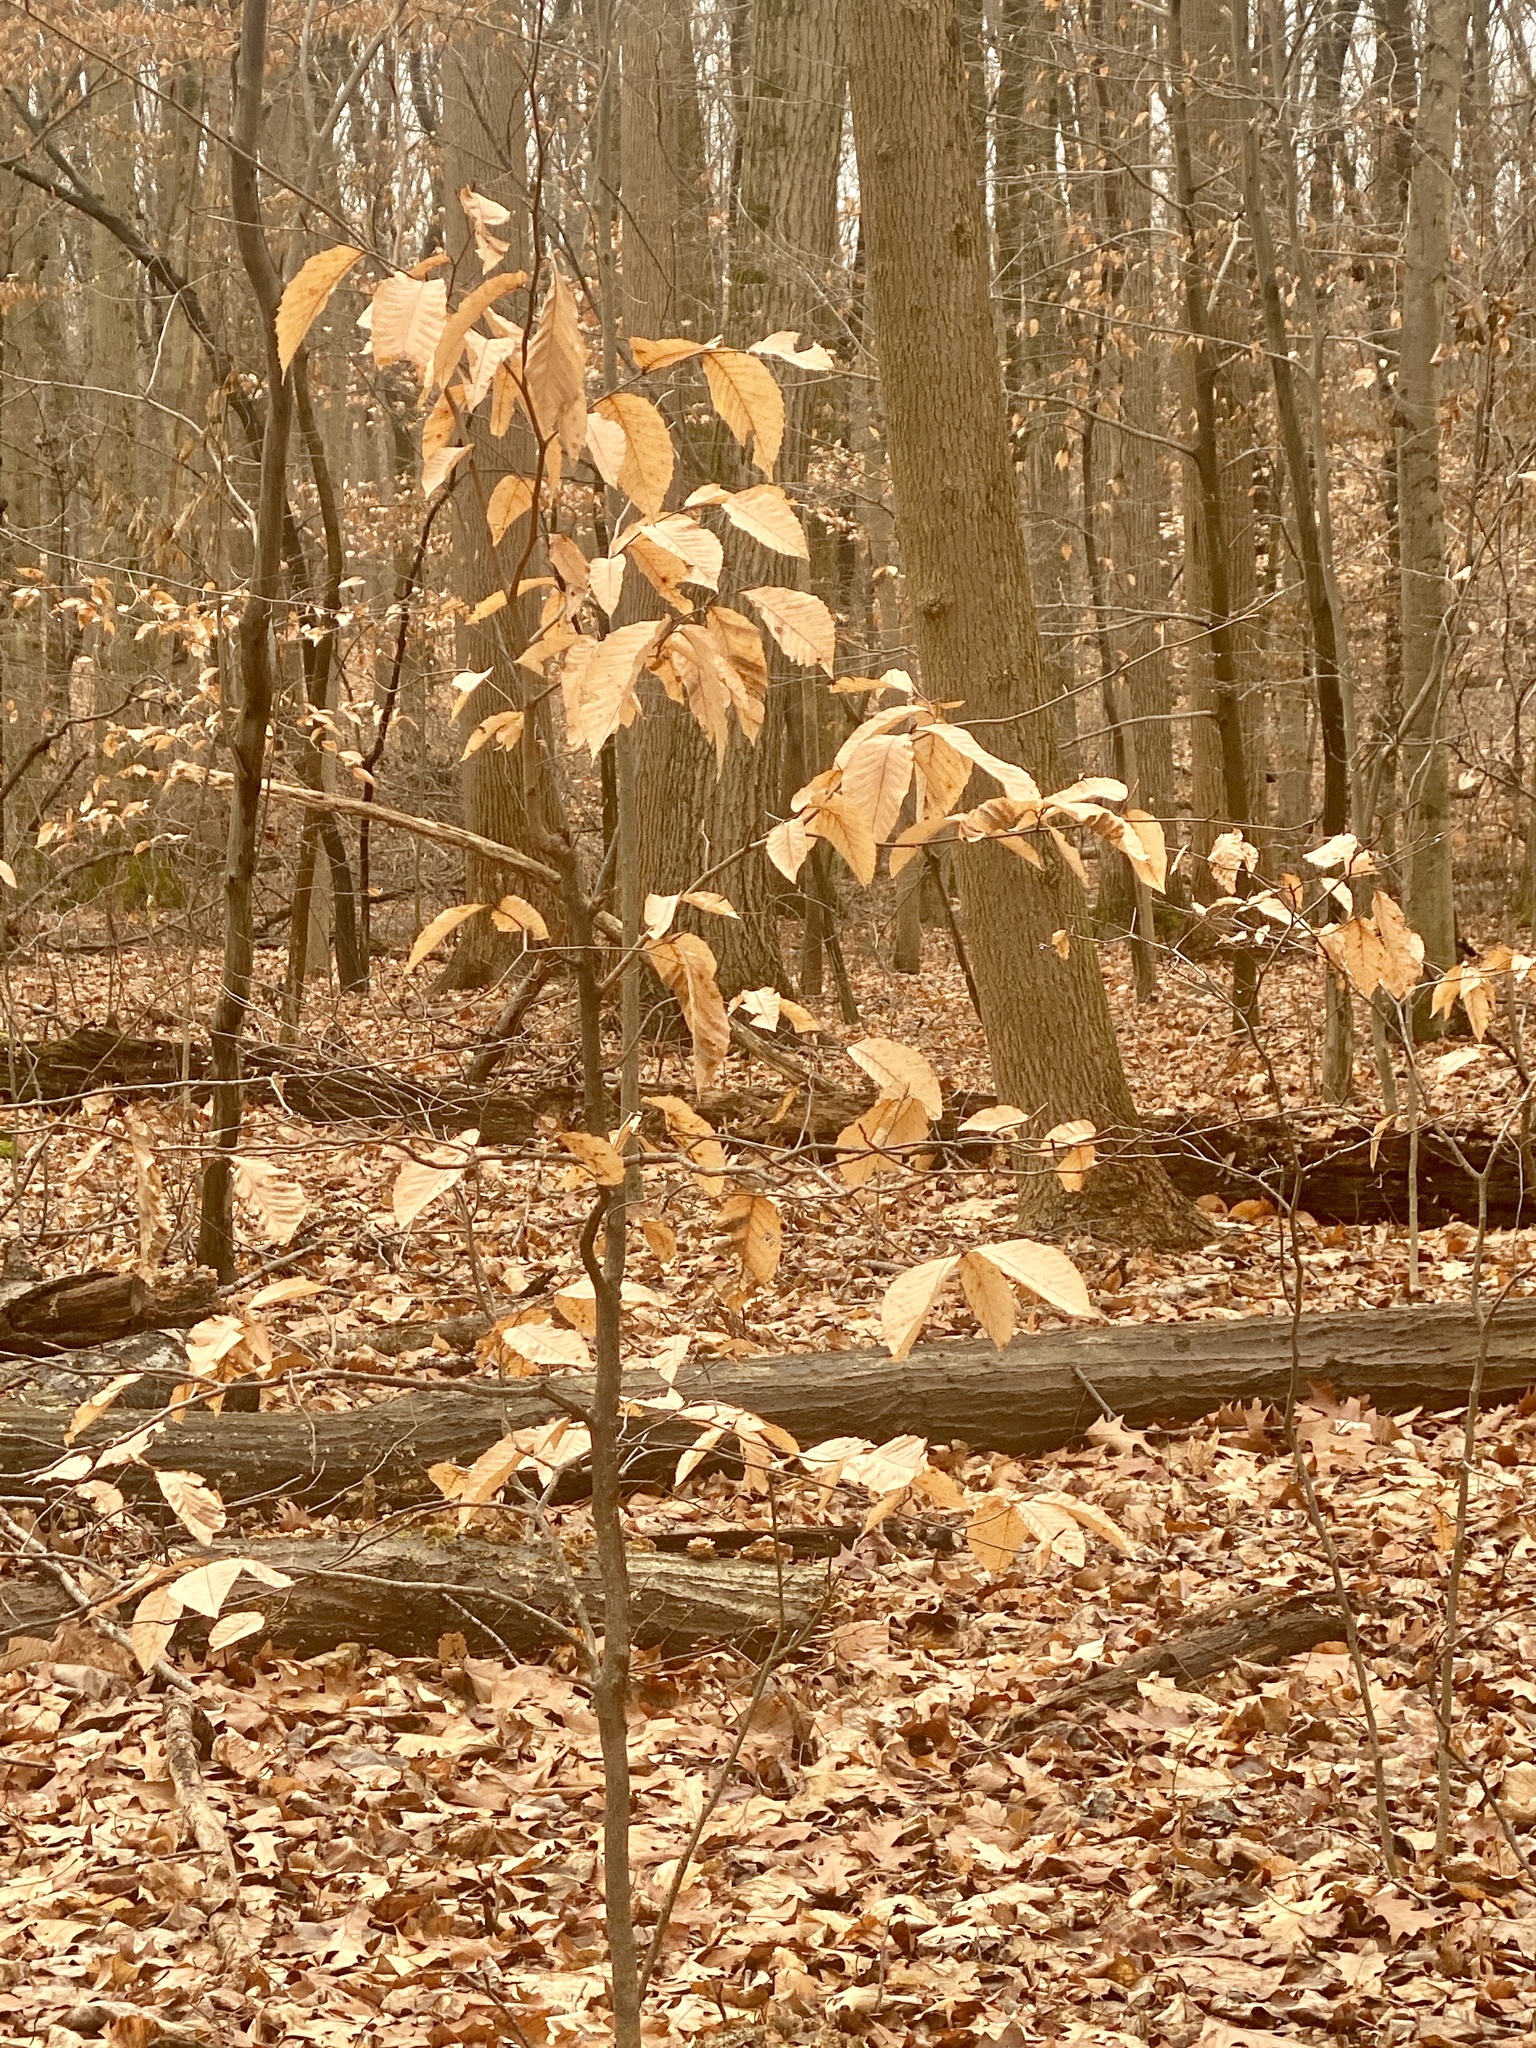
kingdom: Plantae
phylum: Tracheophyta
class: Magnoliopsida
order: Fagales
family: Fagaceae
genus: Fagus
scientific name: Fagus grandifolia
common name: American beech
